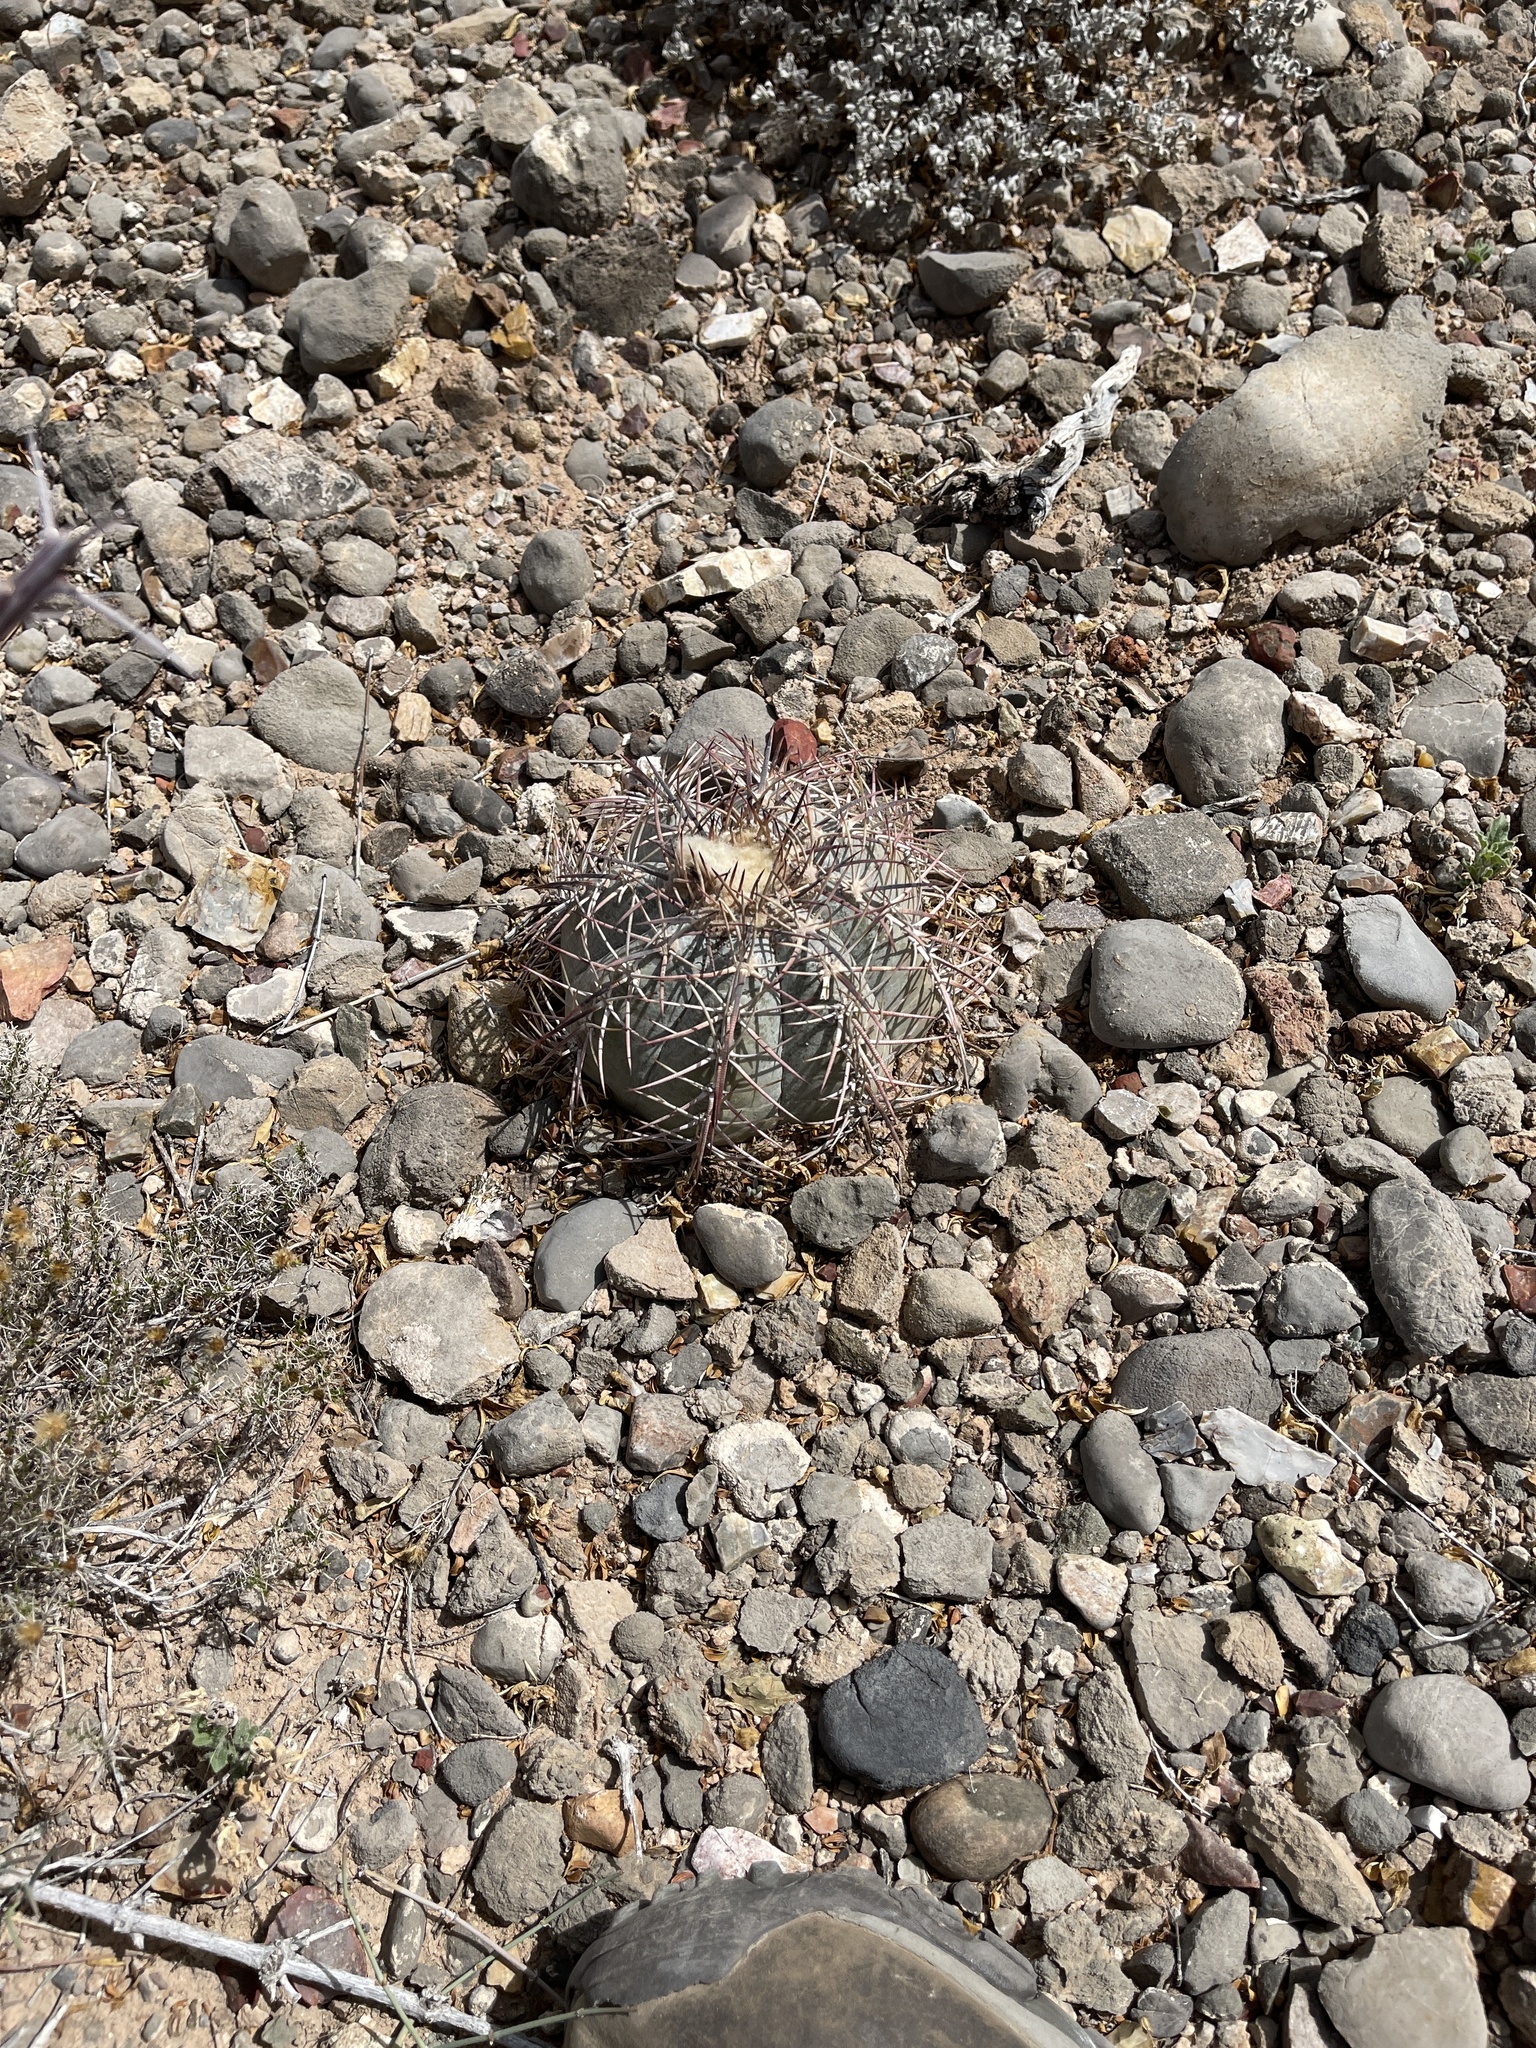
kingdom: Plantae
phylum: Tracheophyta
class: Magnoliopsida
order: Caryophyllales
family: Cactaceae
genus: Echinocactus
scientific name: Echinocactus horizonthalonius
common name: Devilshead
